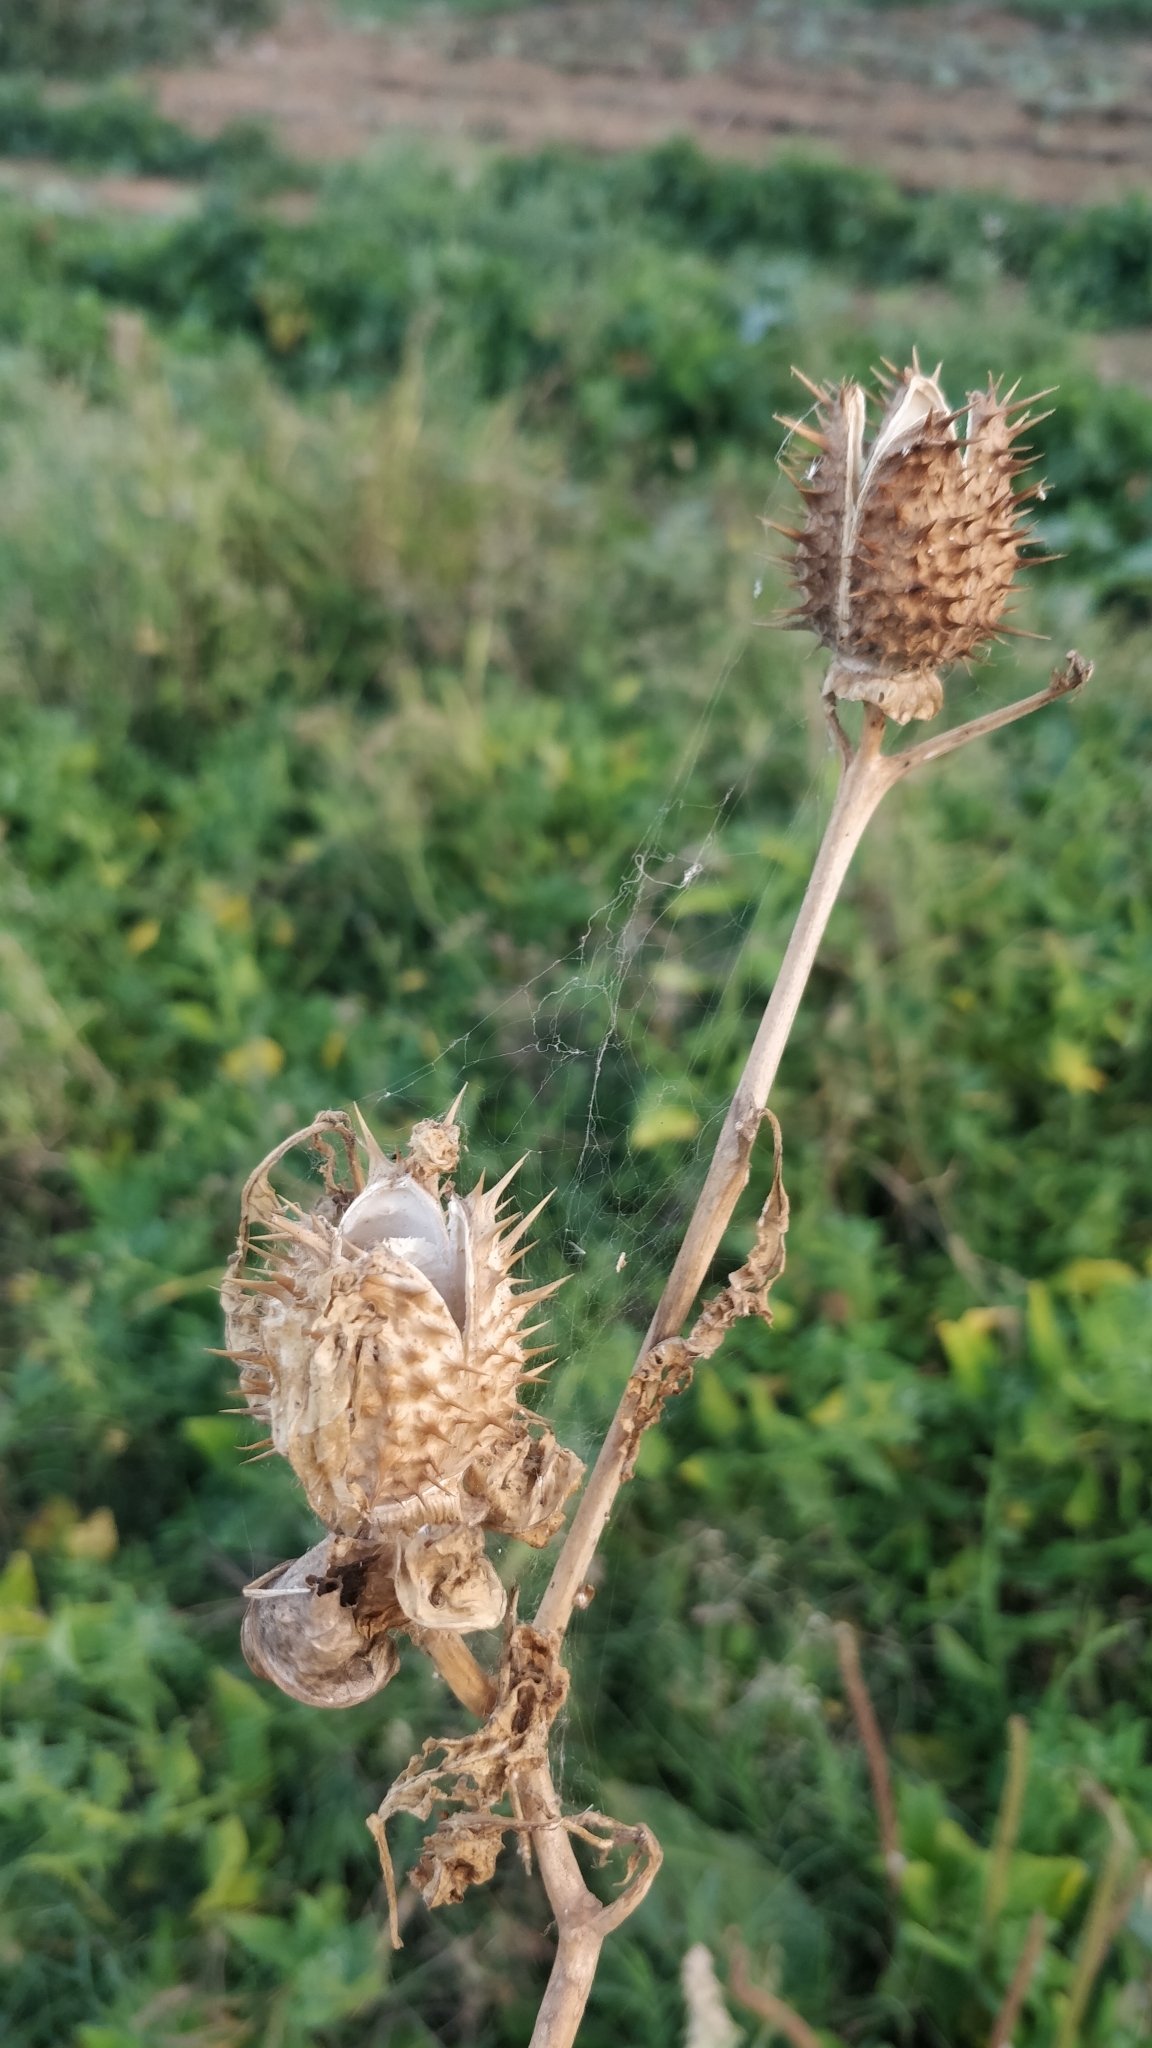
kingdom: Plantae
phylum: Tracheophyta
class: Magnoliopsida
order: Solanales
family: Solanaceae
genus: Datura
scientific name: Datura stramonium
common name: Thorn-apple
